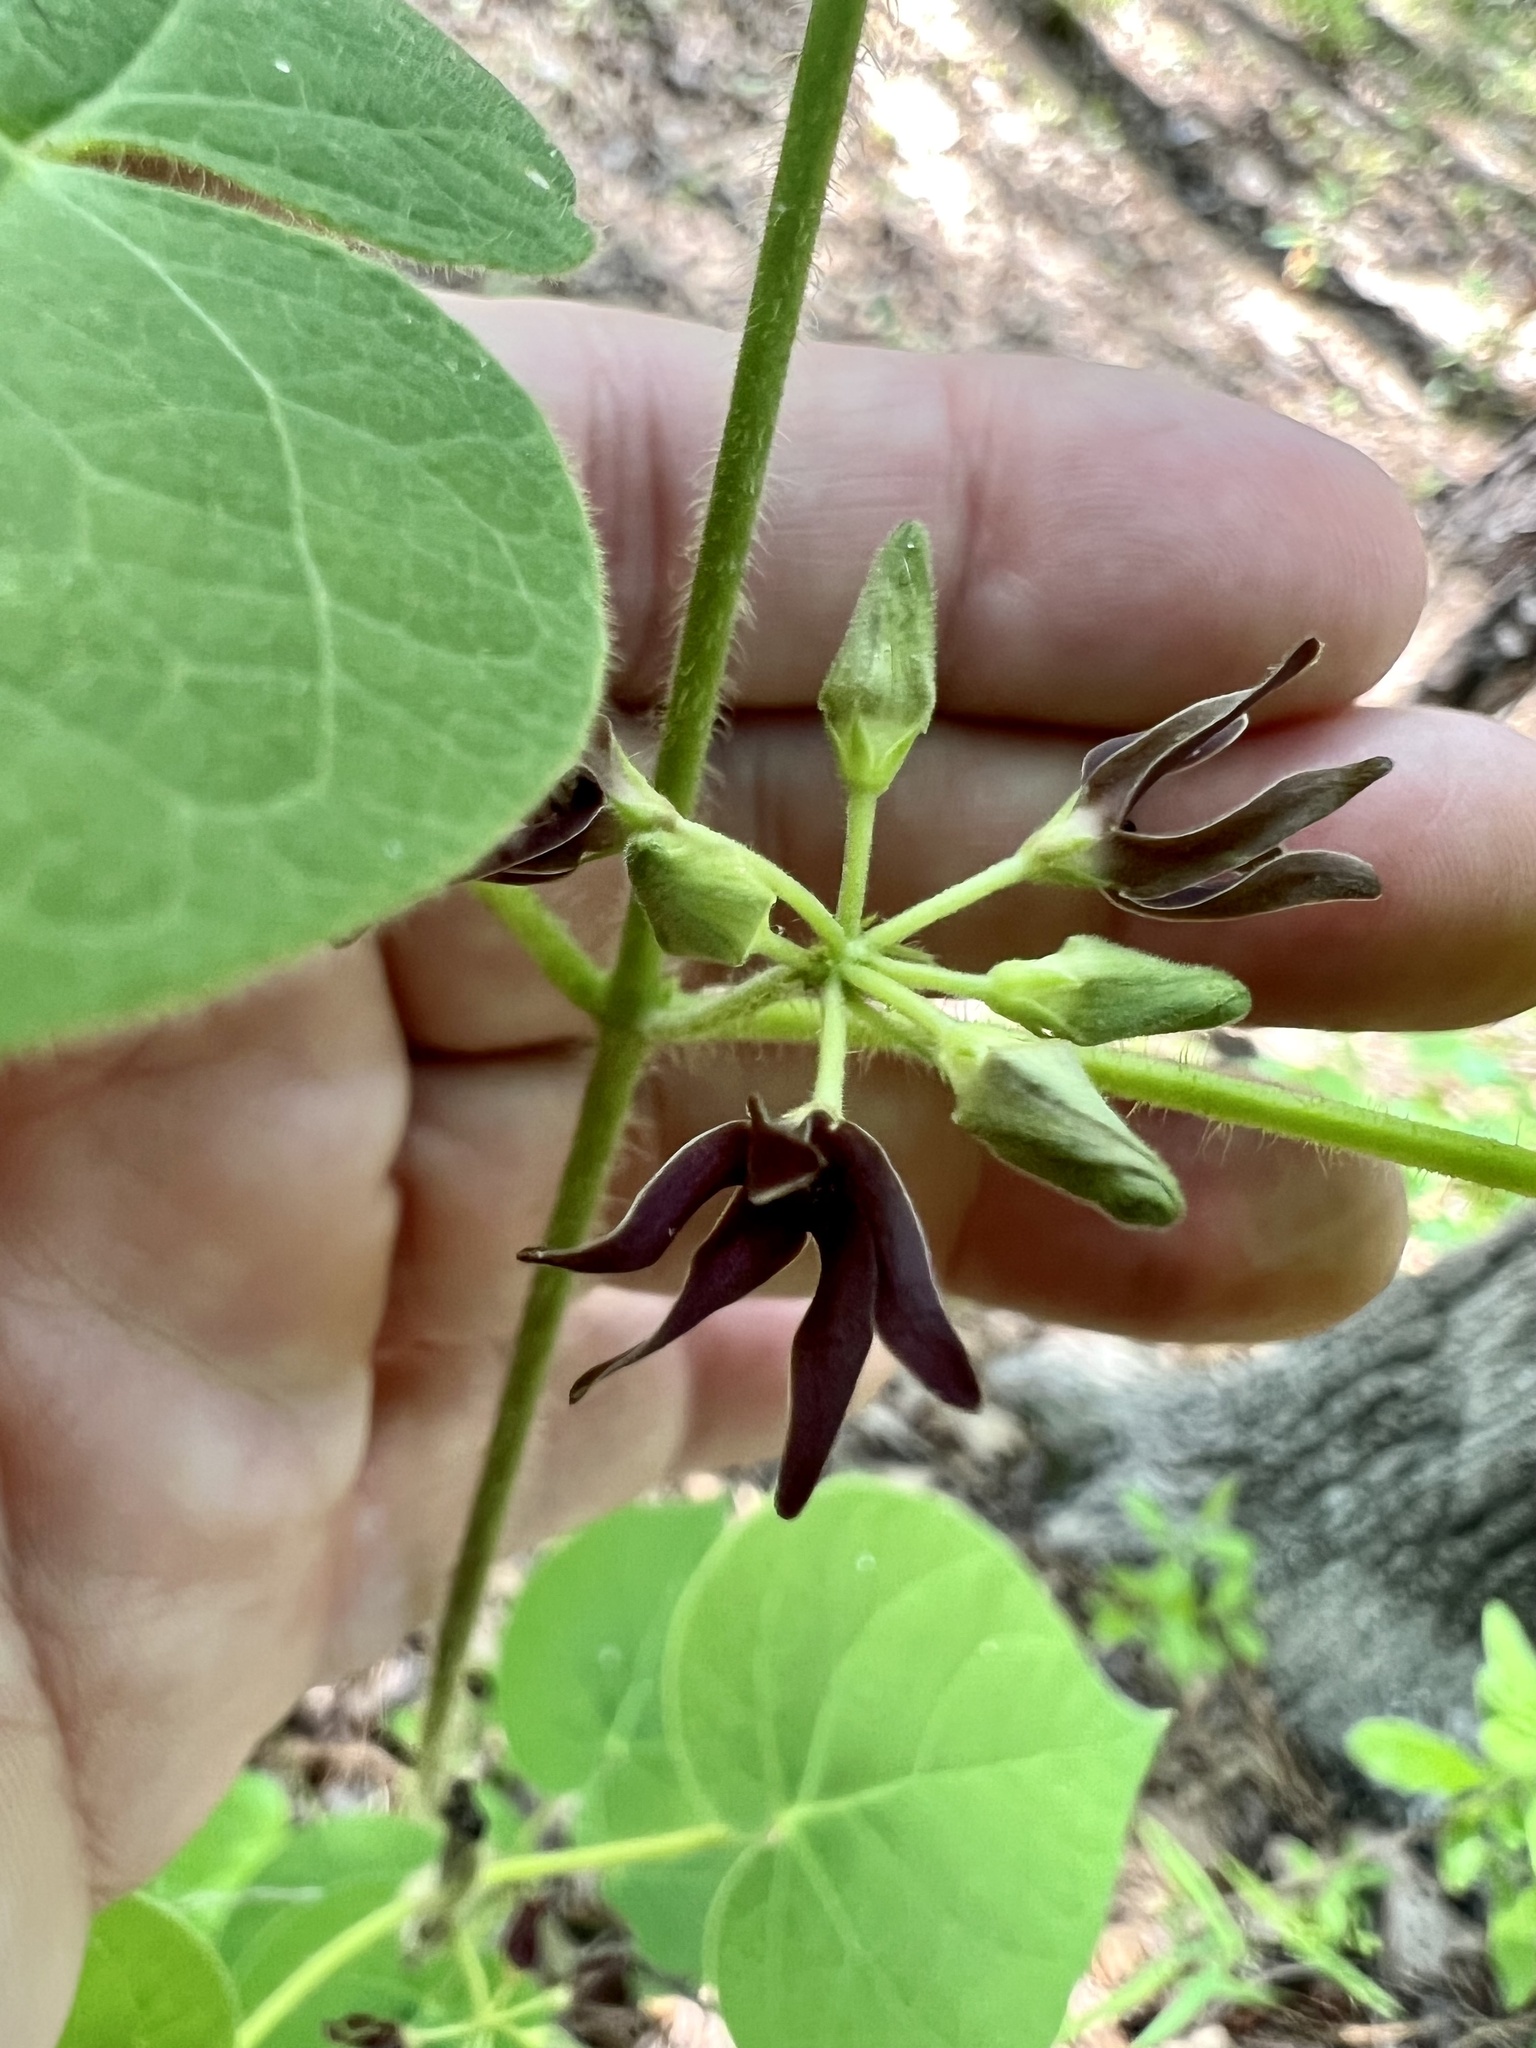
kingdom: Plantae
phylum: Tracheophyta
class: Magnoliopsida
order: Gentianales
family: Apocynaceae
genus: Matelea
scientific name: Matelea decipiens
